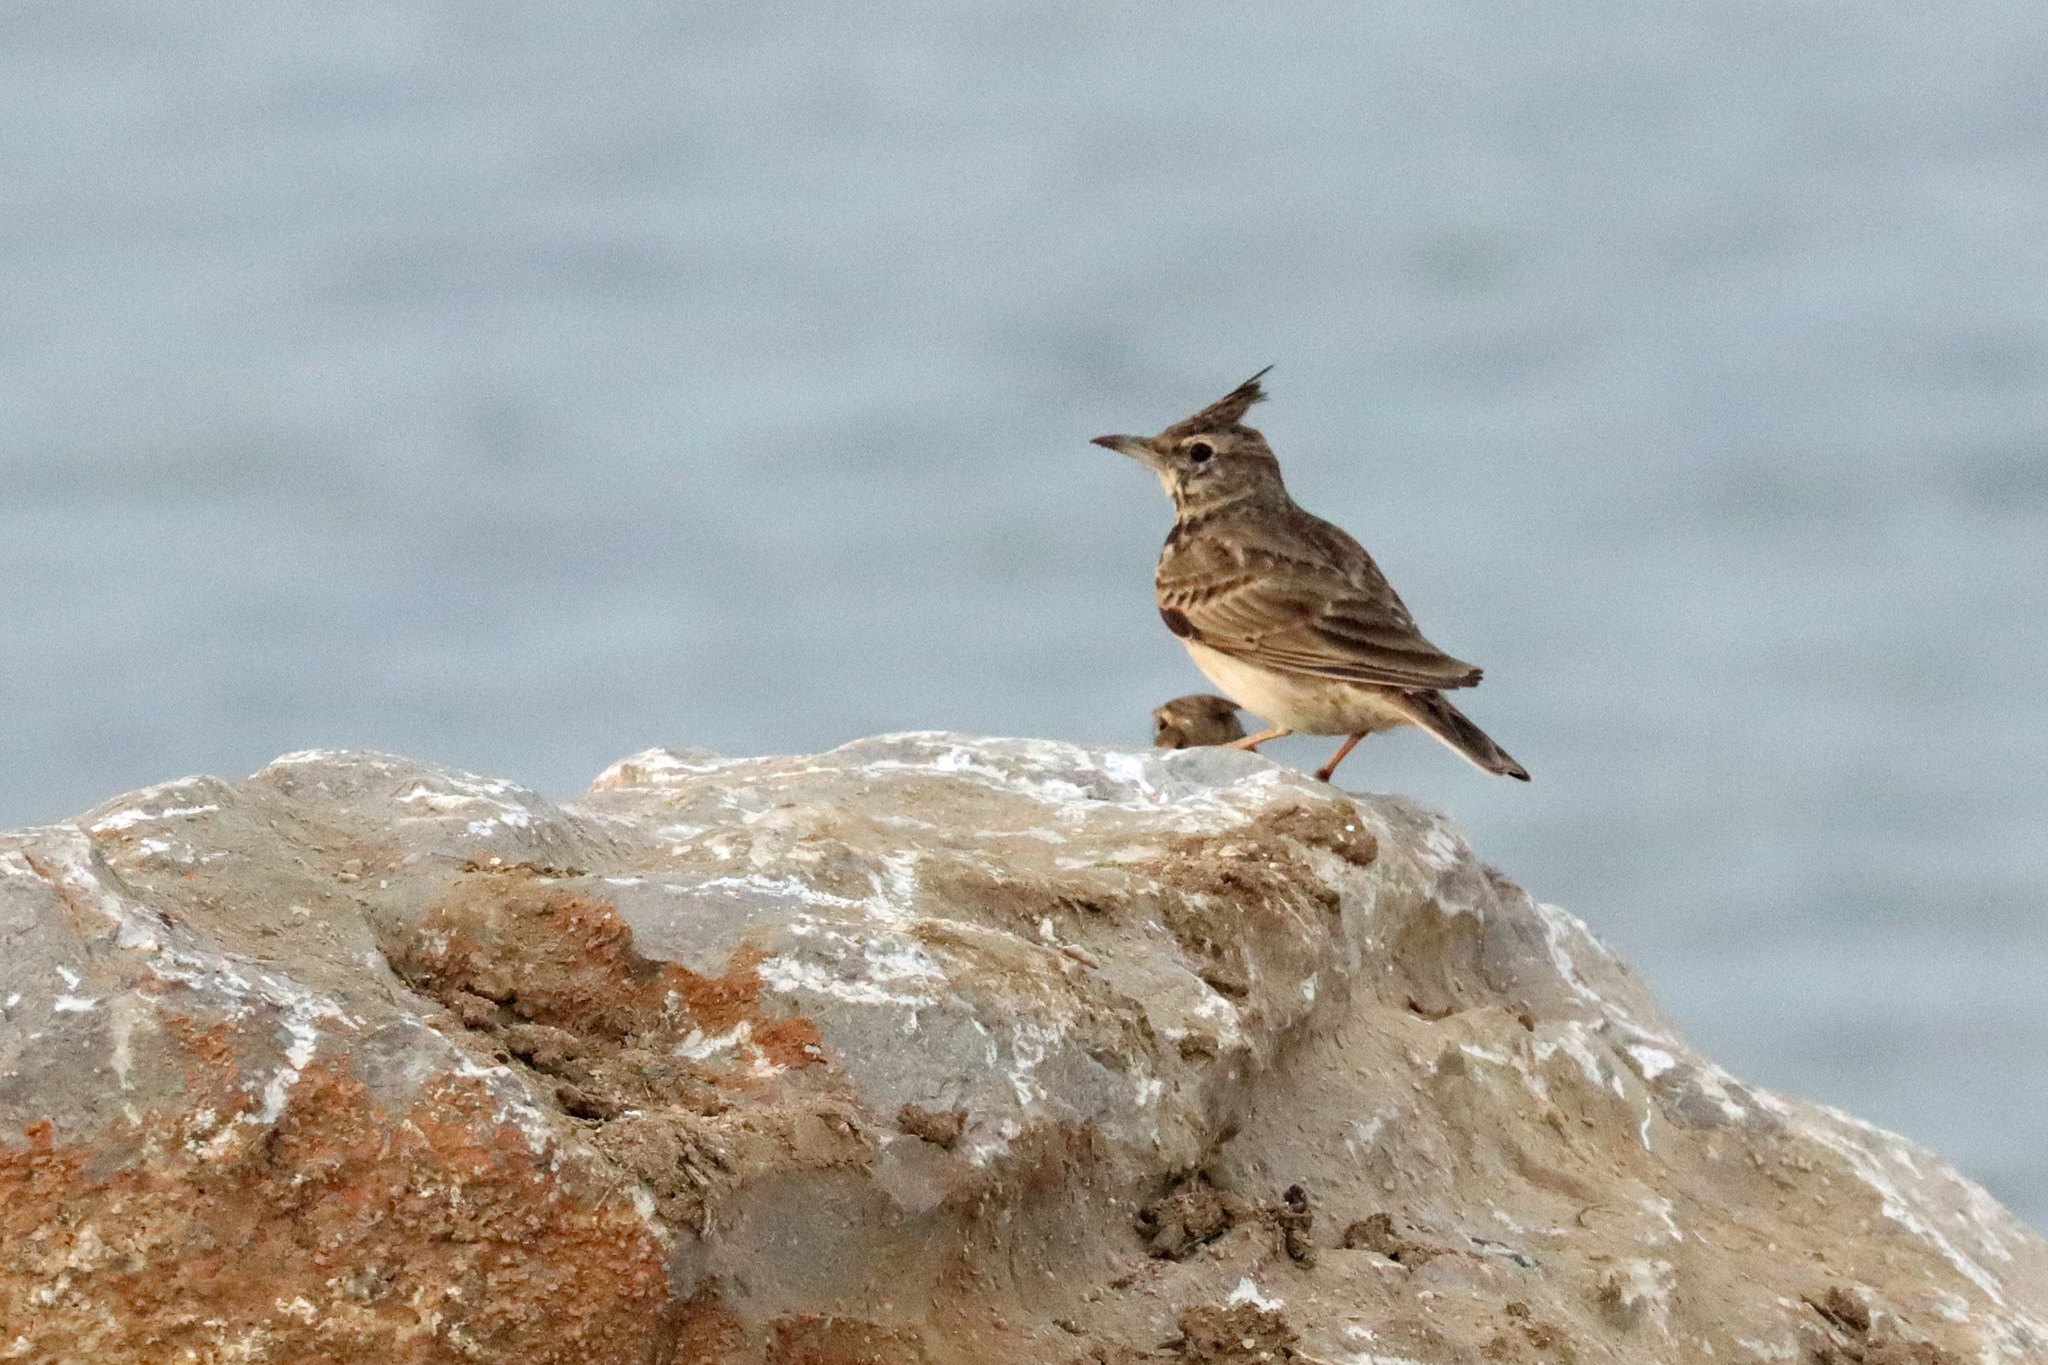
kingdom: Animalia
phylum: Chordata
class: Aves
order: Passeriformes
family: Alaudidae
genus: Galerida
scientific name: Galerida cristata
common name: Crested lark
